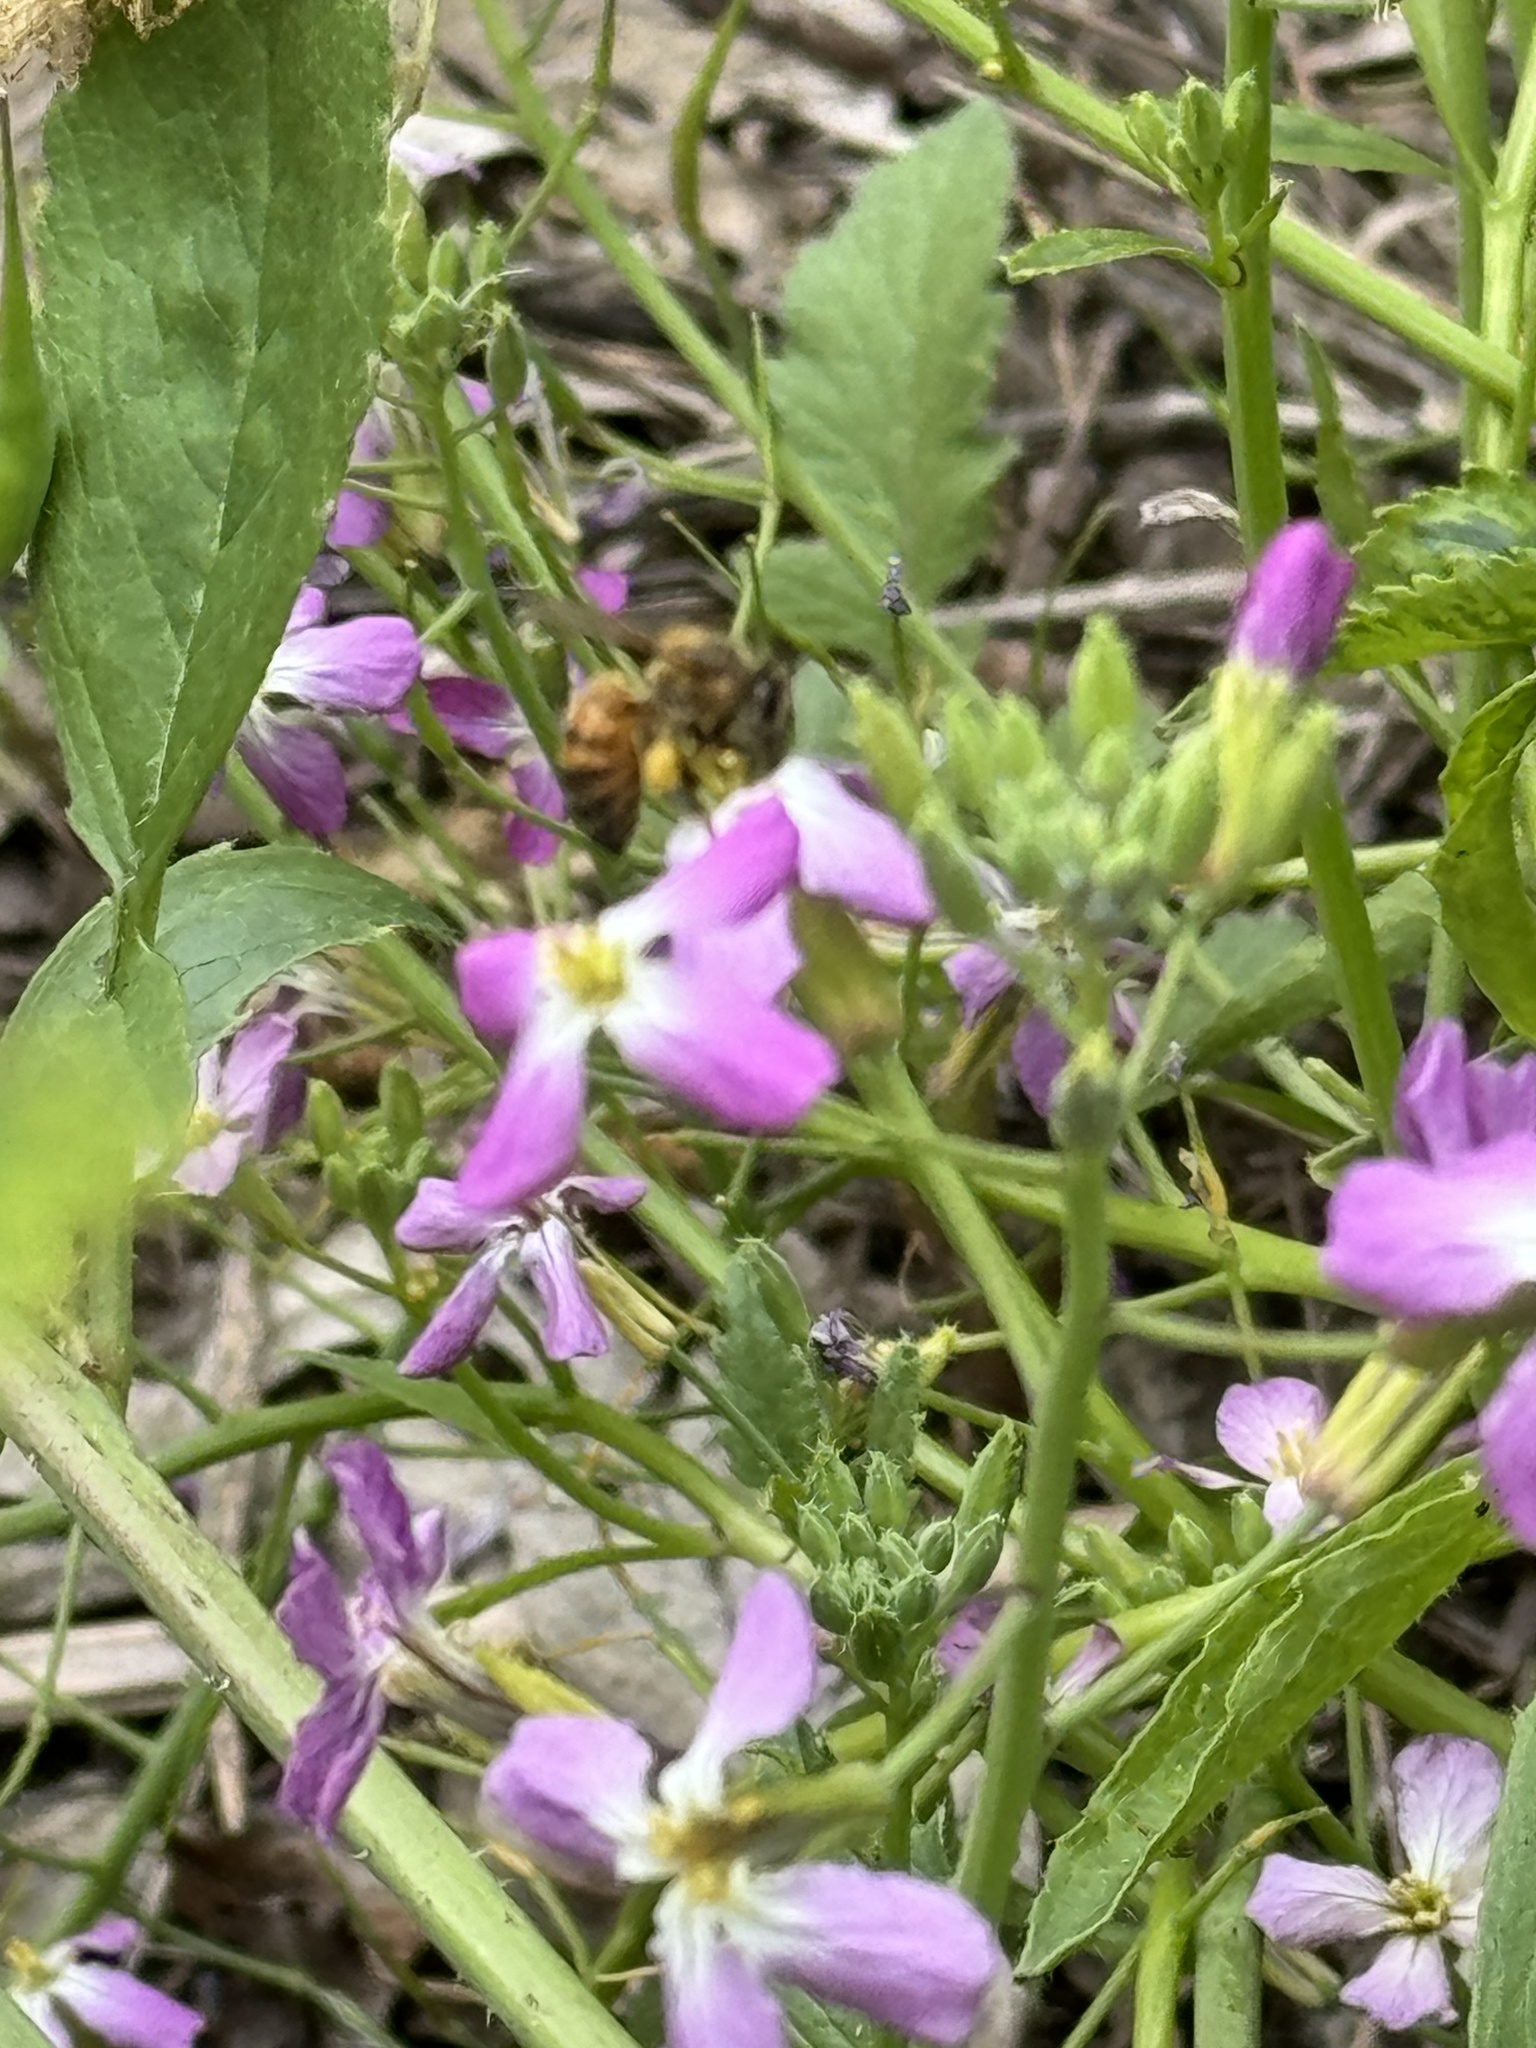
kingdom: Plantae
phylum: Tracheophyta
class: Magnoliopsida
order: Brassicales
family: Brassicaceae
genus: Raphanus
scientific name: Raphanus raphanistrum
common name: Wild radish
